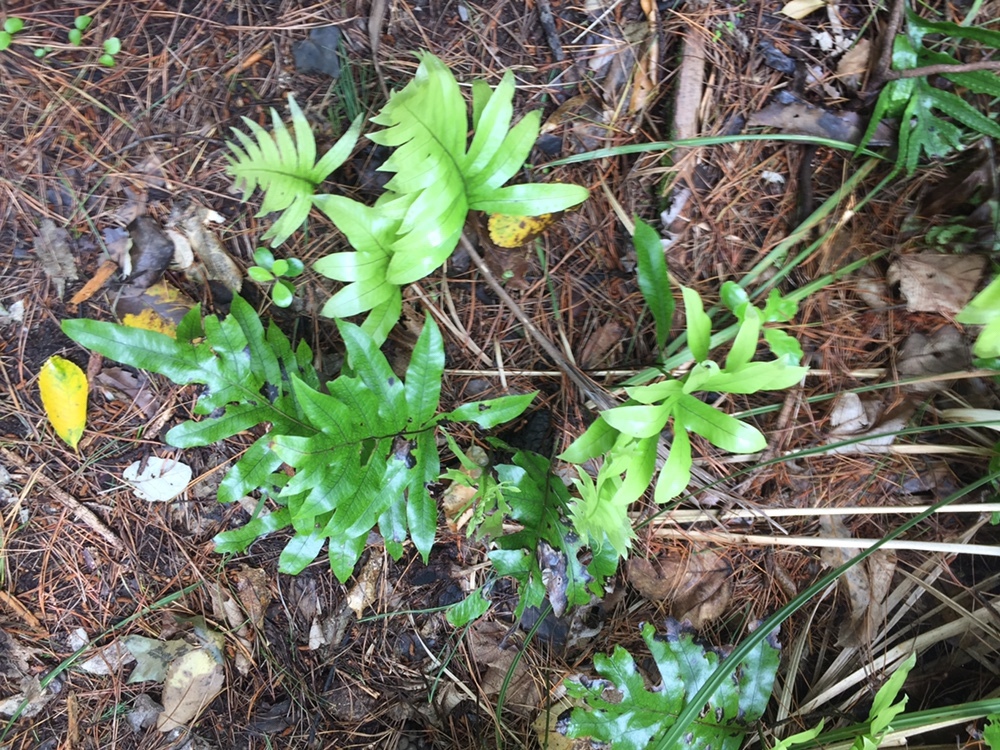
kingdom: Plantae
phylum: Tracheophyta
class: Polypodiopsida
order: Polypodiales
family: Polypodiaceae
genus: Lecanopteris
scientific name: Lecanopteris pustulata
